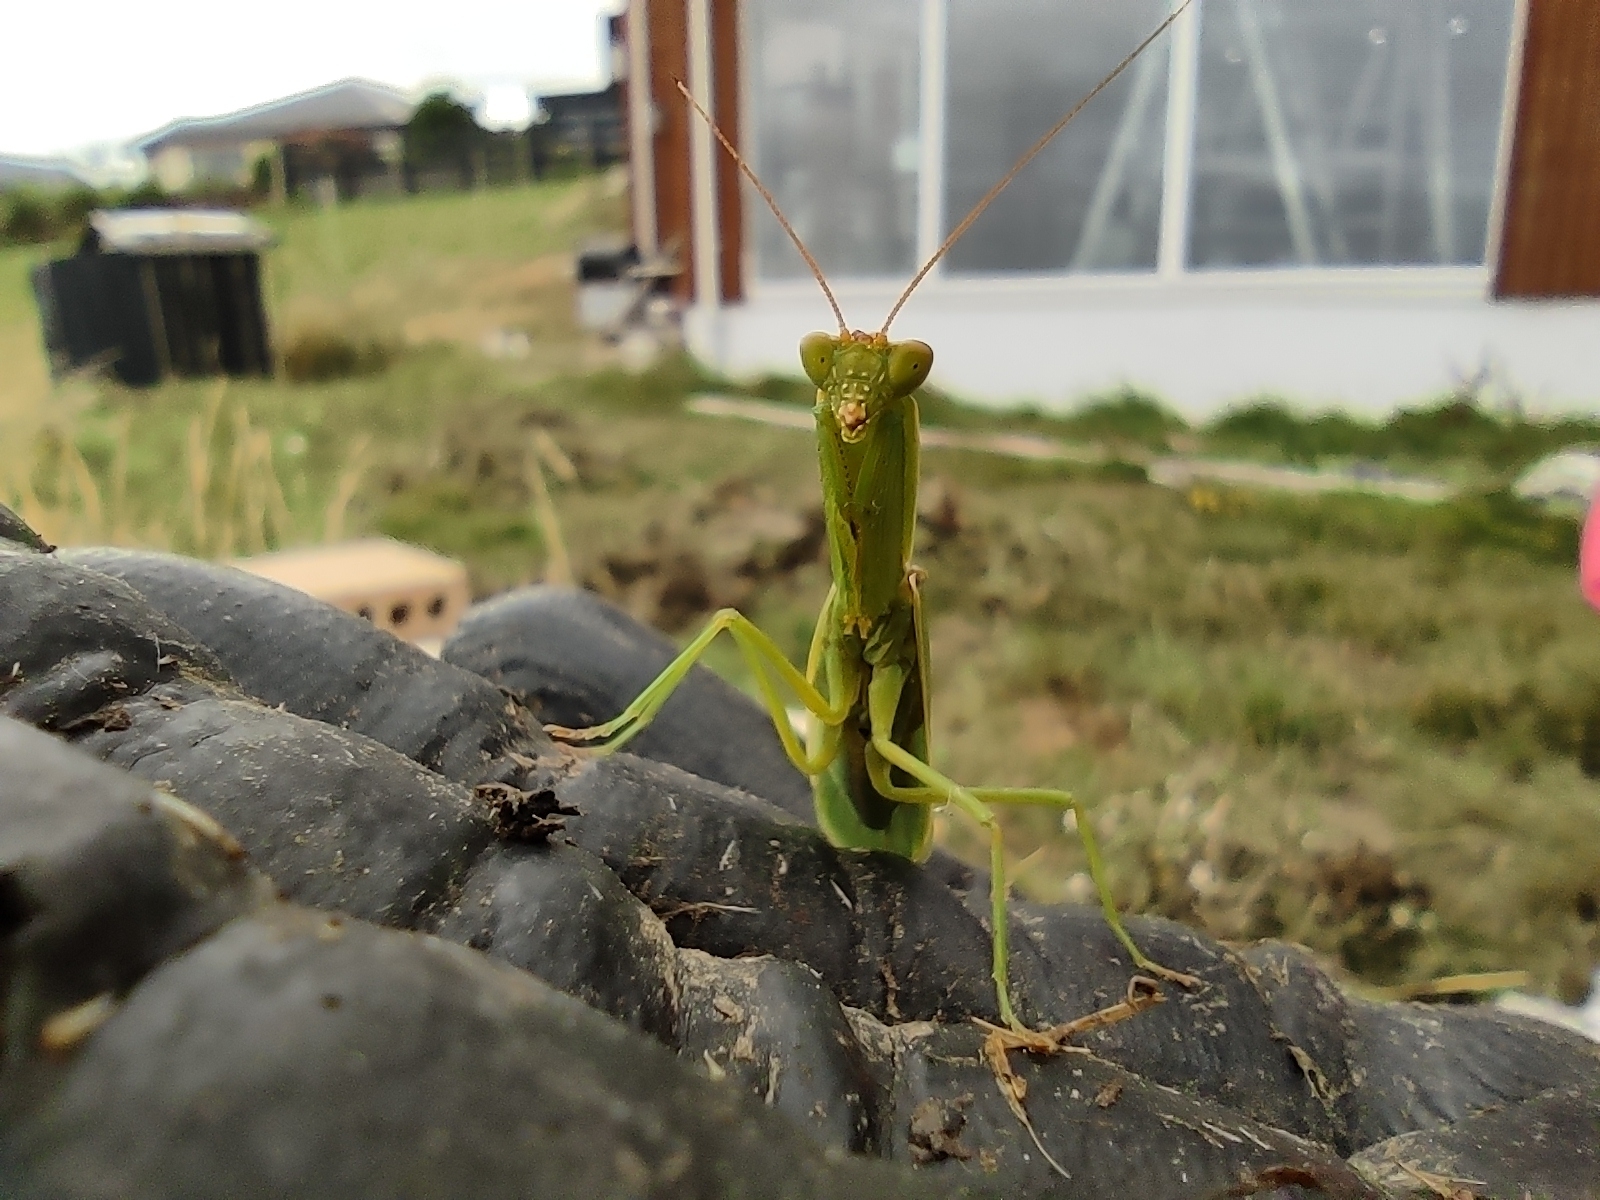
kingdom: Animalia
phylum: Arthropoda
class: Insecta
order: Mantodea
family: Mantidae
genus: Orthodera
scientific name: Orthodera novaezealandiae
